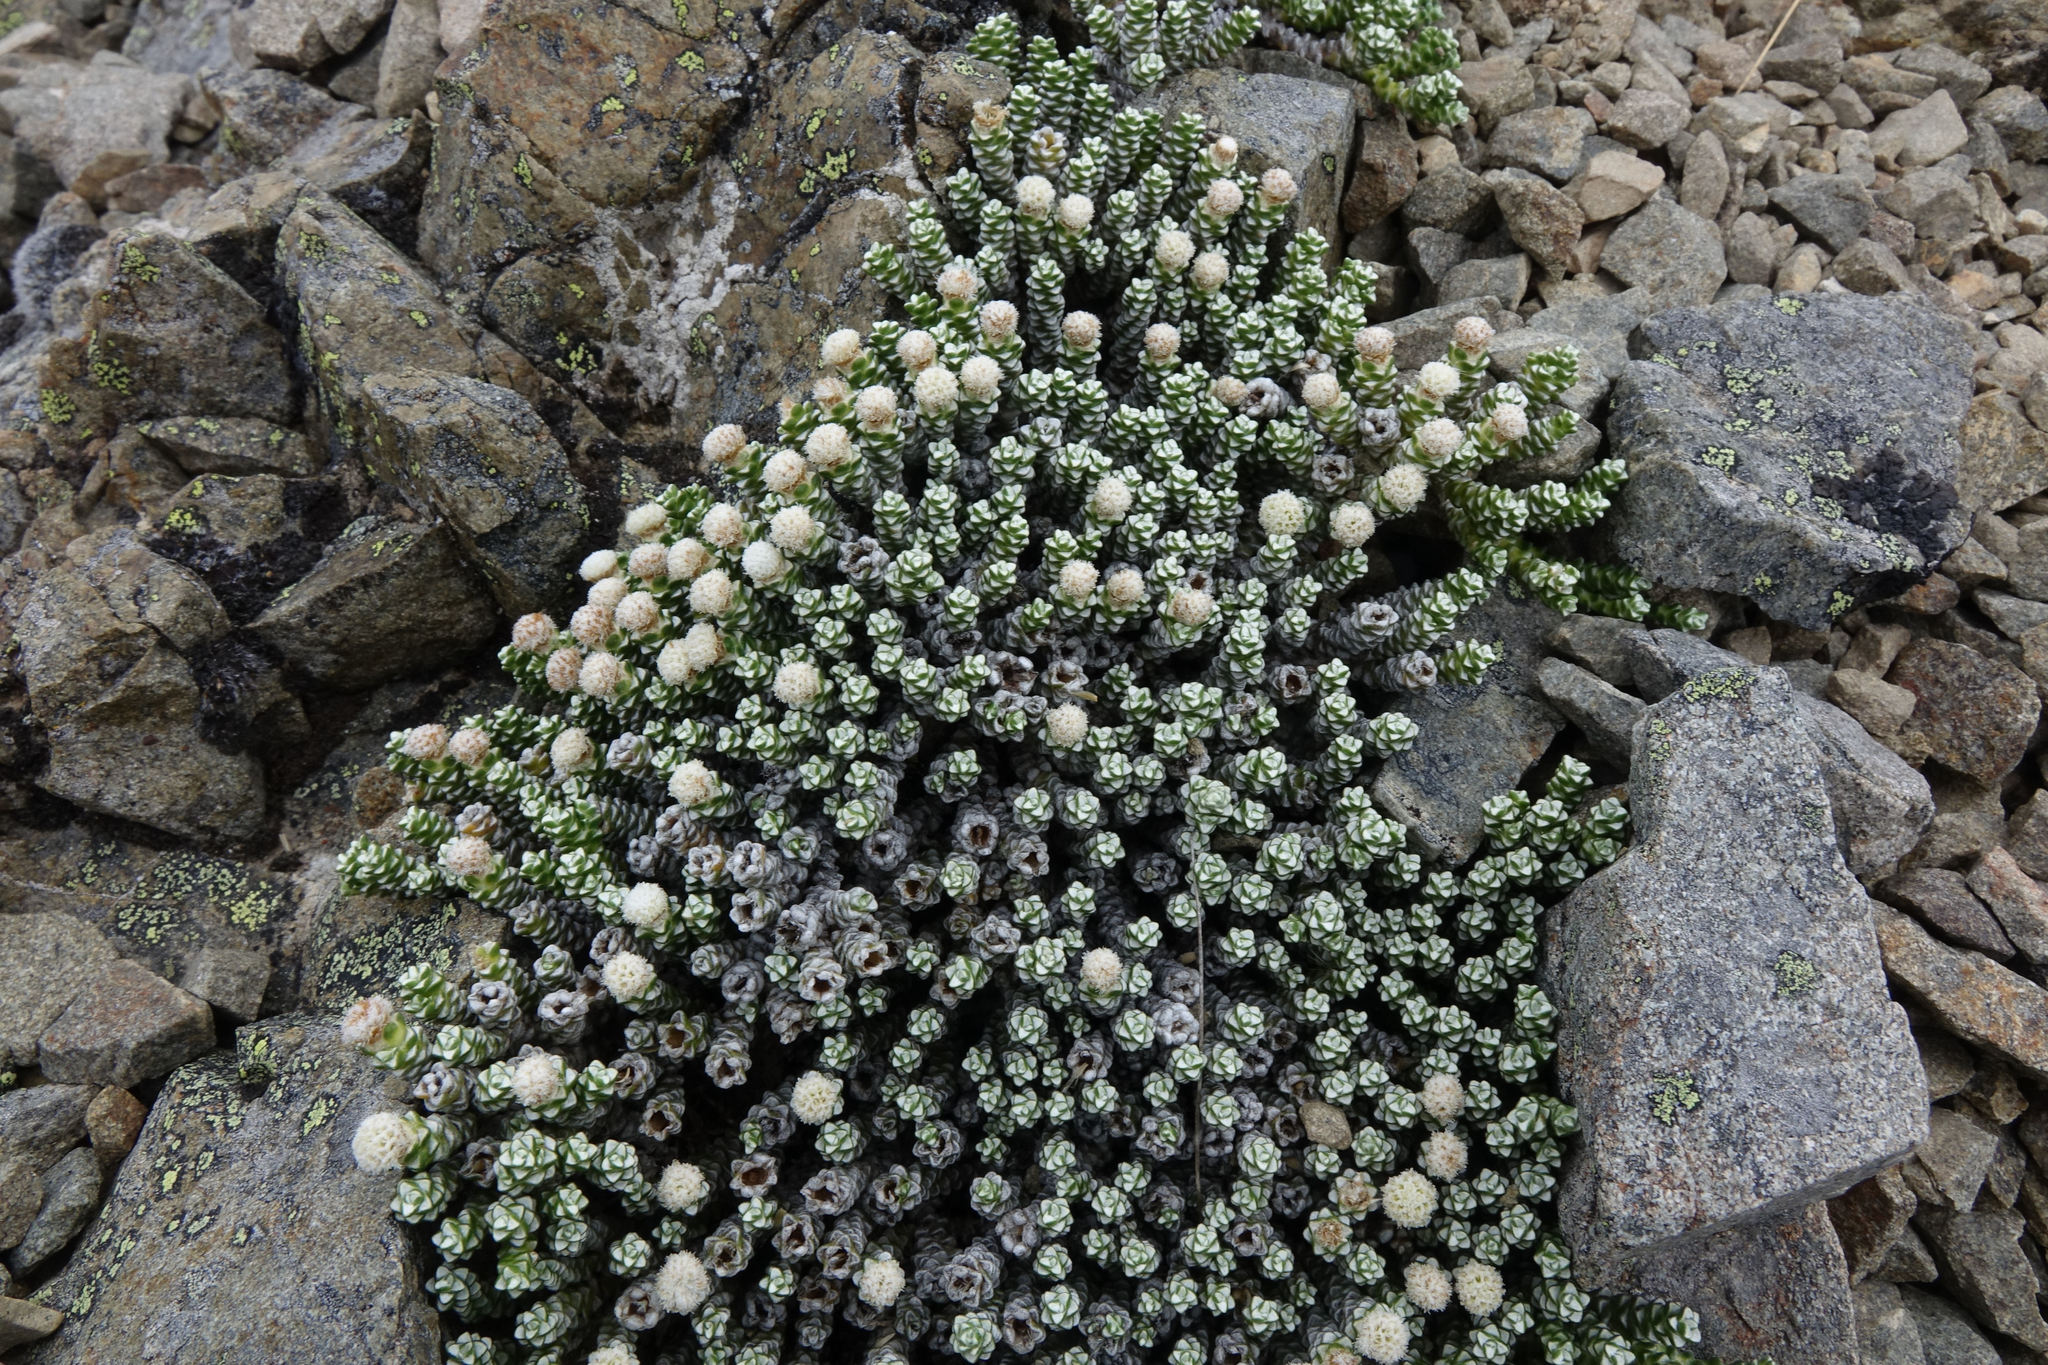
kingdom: Plantae
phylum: Tracheophyta
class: Magnoliopsida
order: Asterales
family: Asteraceae
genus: Raoulia
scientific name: Raoulia petriensis
